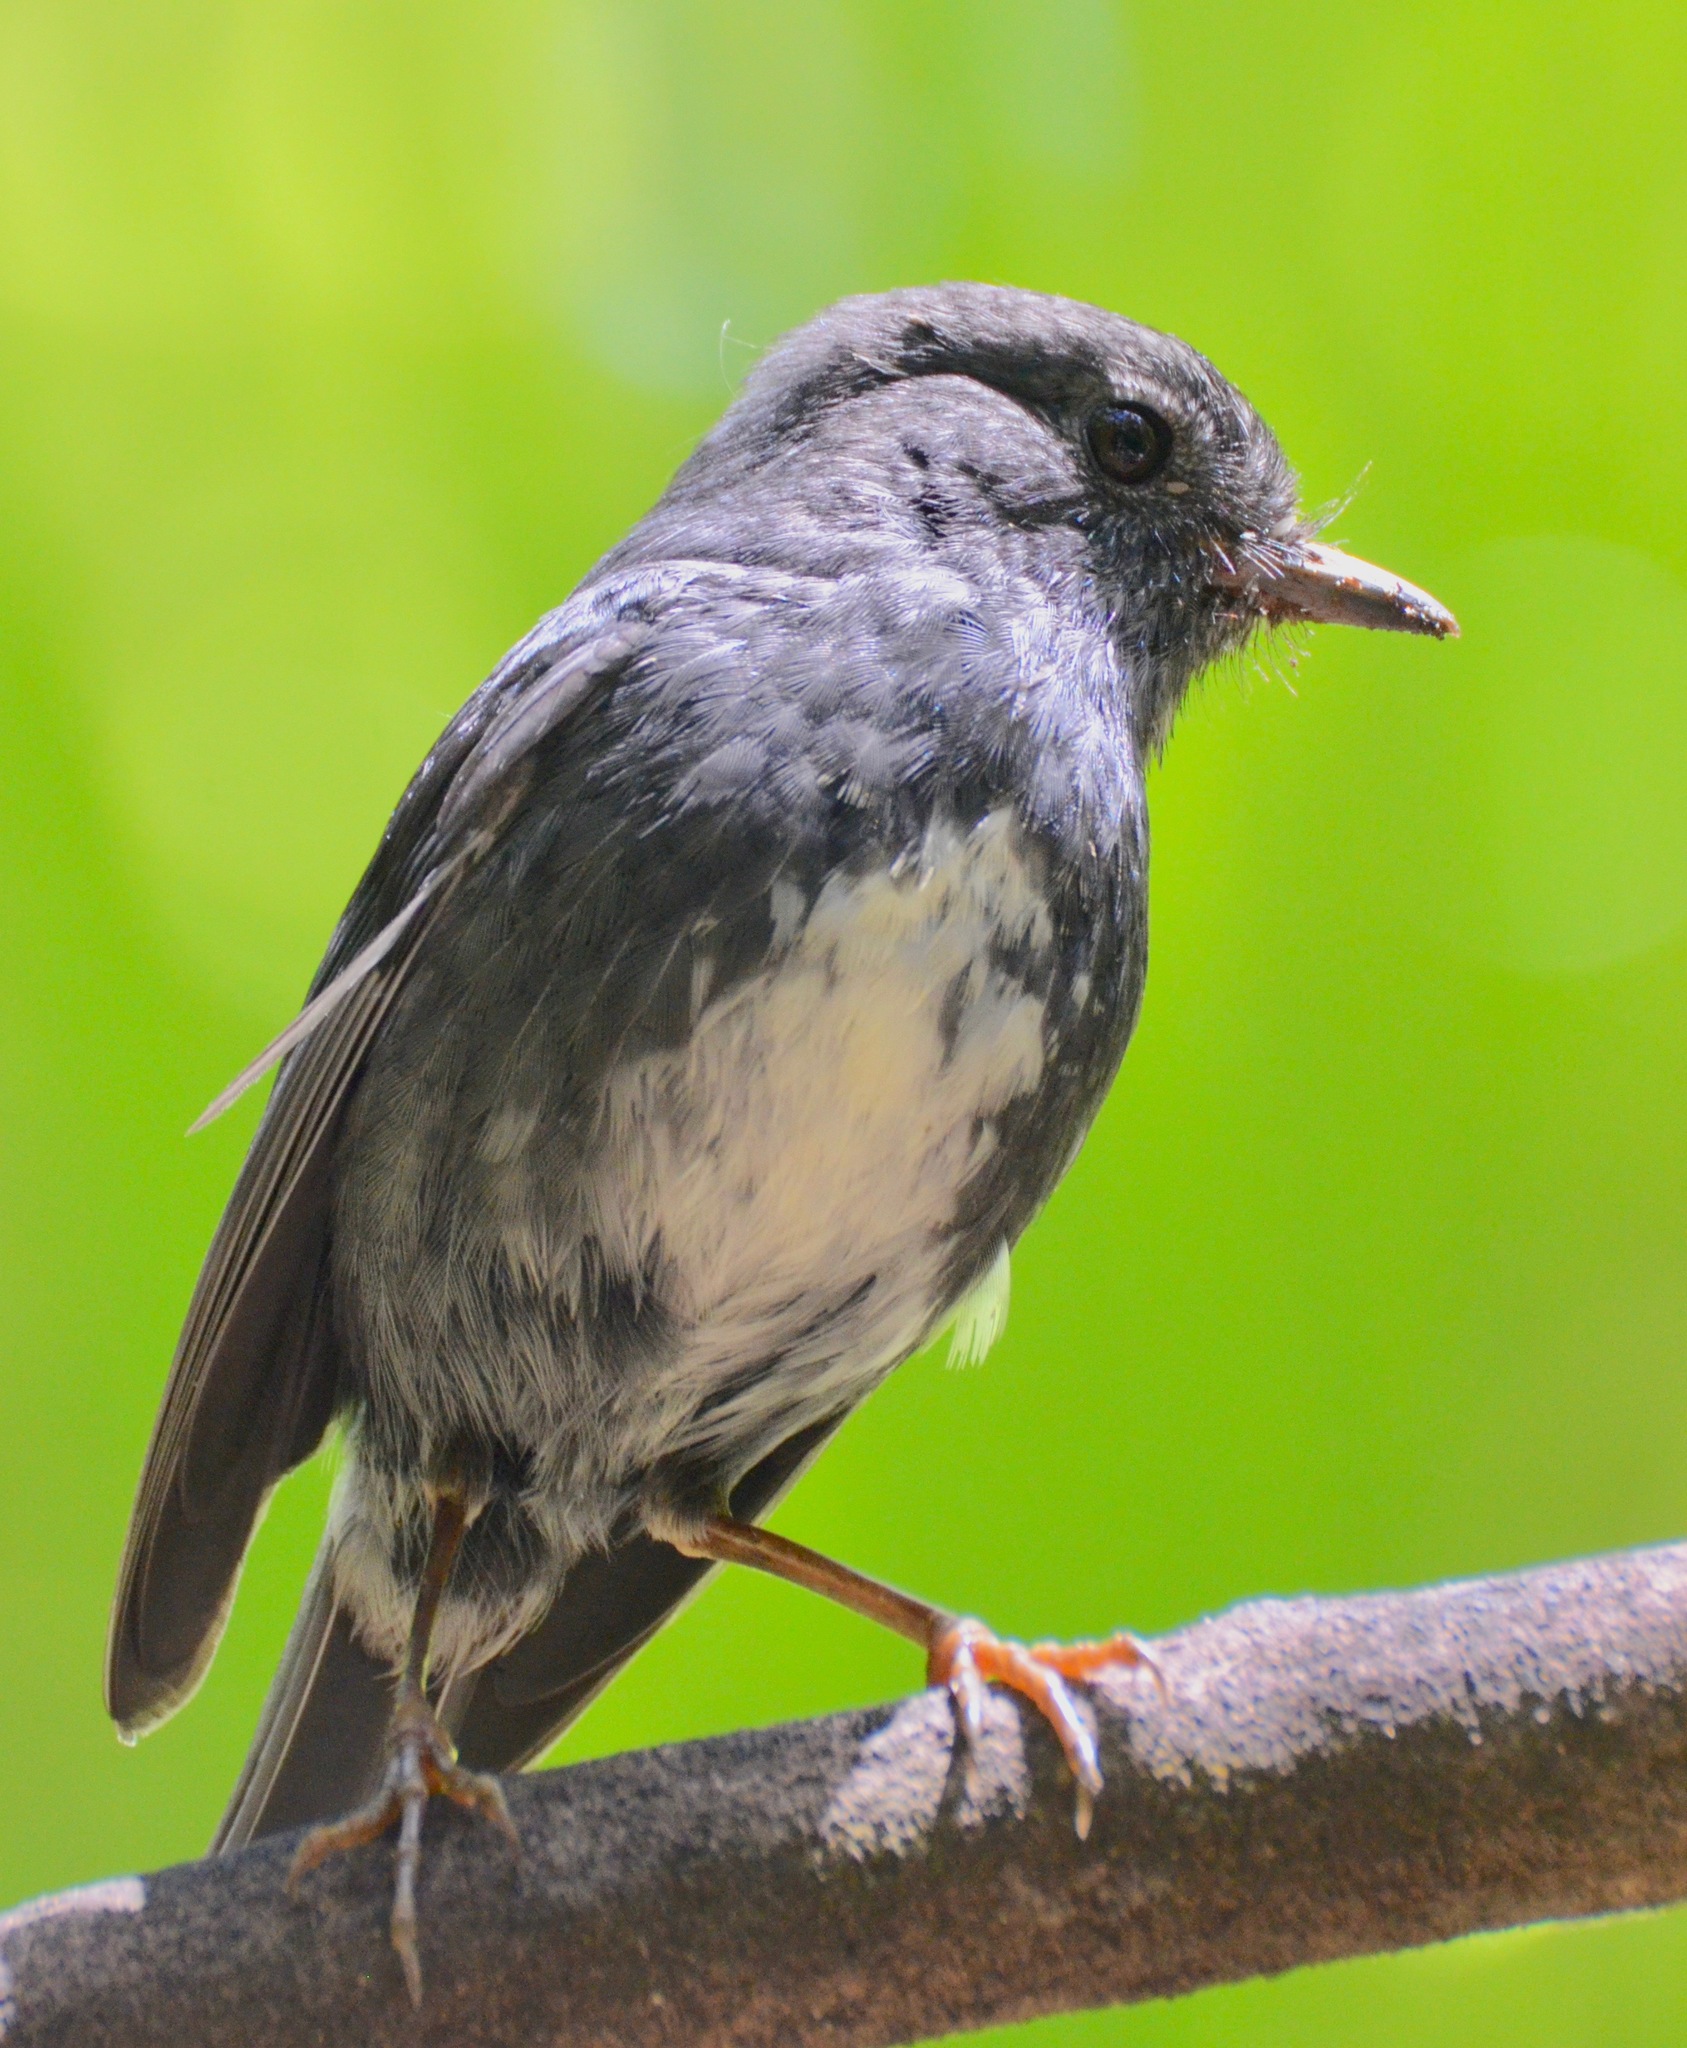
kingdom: Animalia
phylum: Chordata
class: Aves
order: Passeriformes
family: Petroicidae
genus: Petroica
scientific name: Petroica australis
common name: New zealand robin
